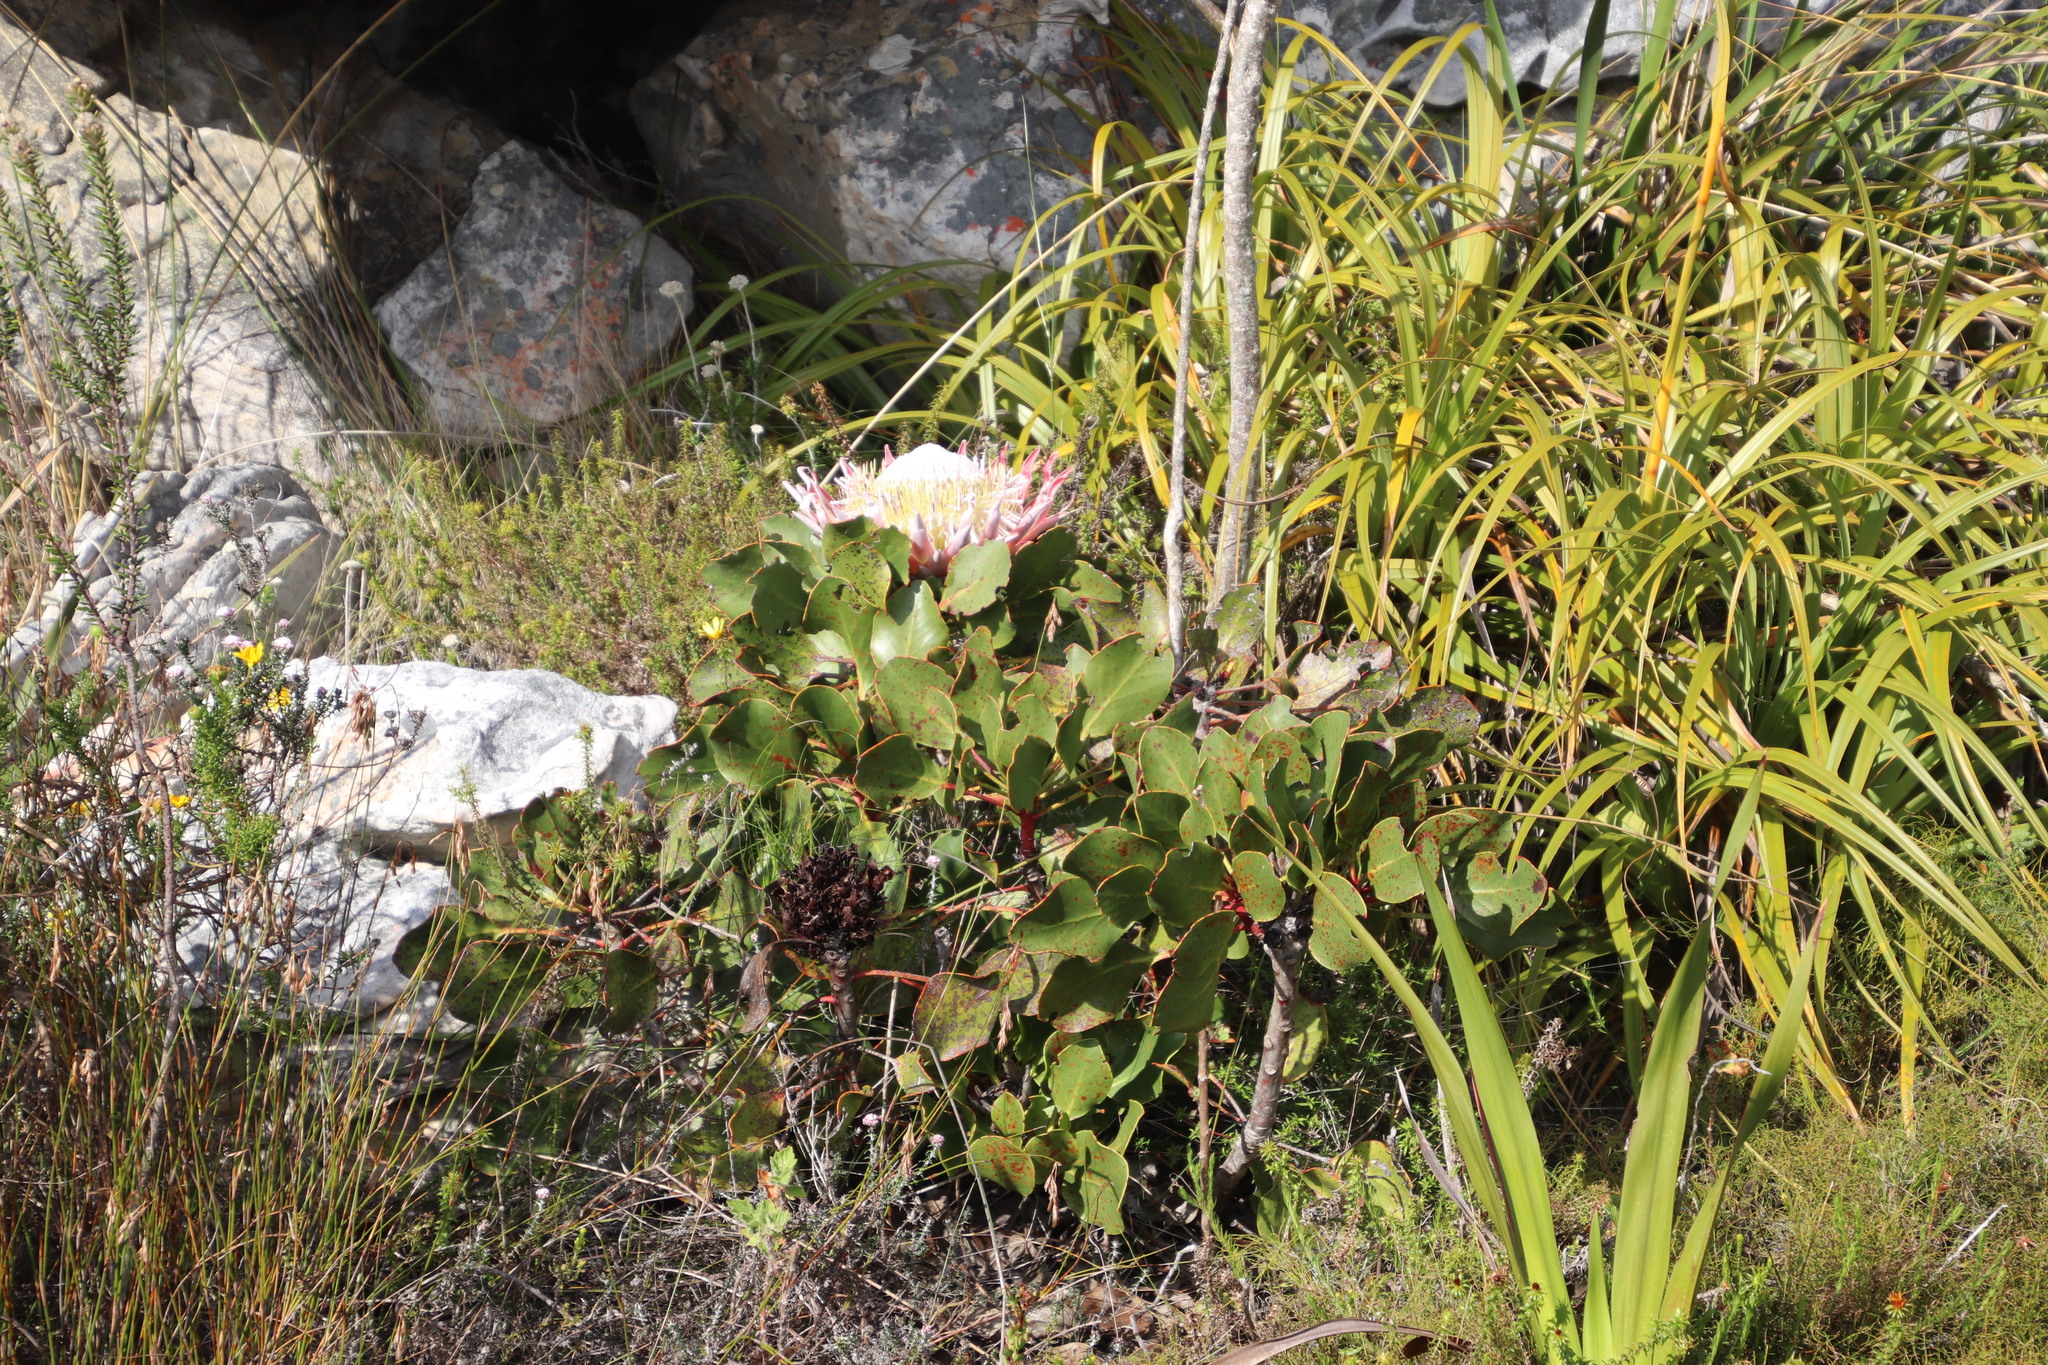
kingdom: Plantae
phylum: Tracheophyta
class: Magnoliopsida
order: Proteales
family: Proteaceae
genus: Protea
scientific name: Protea cynaroides
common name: King protea
